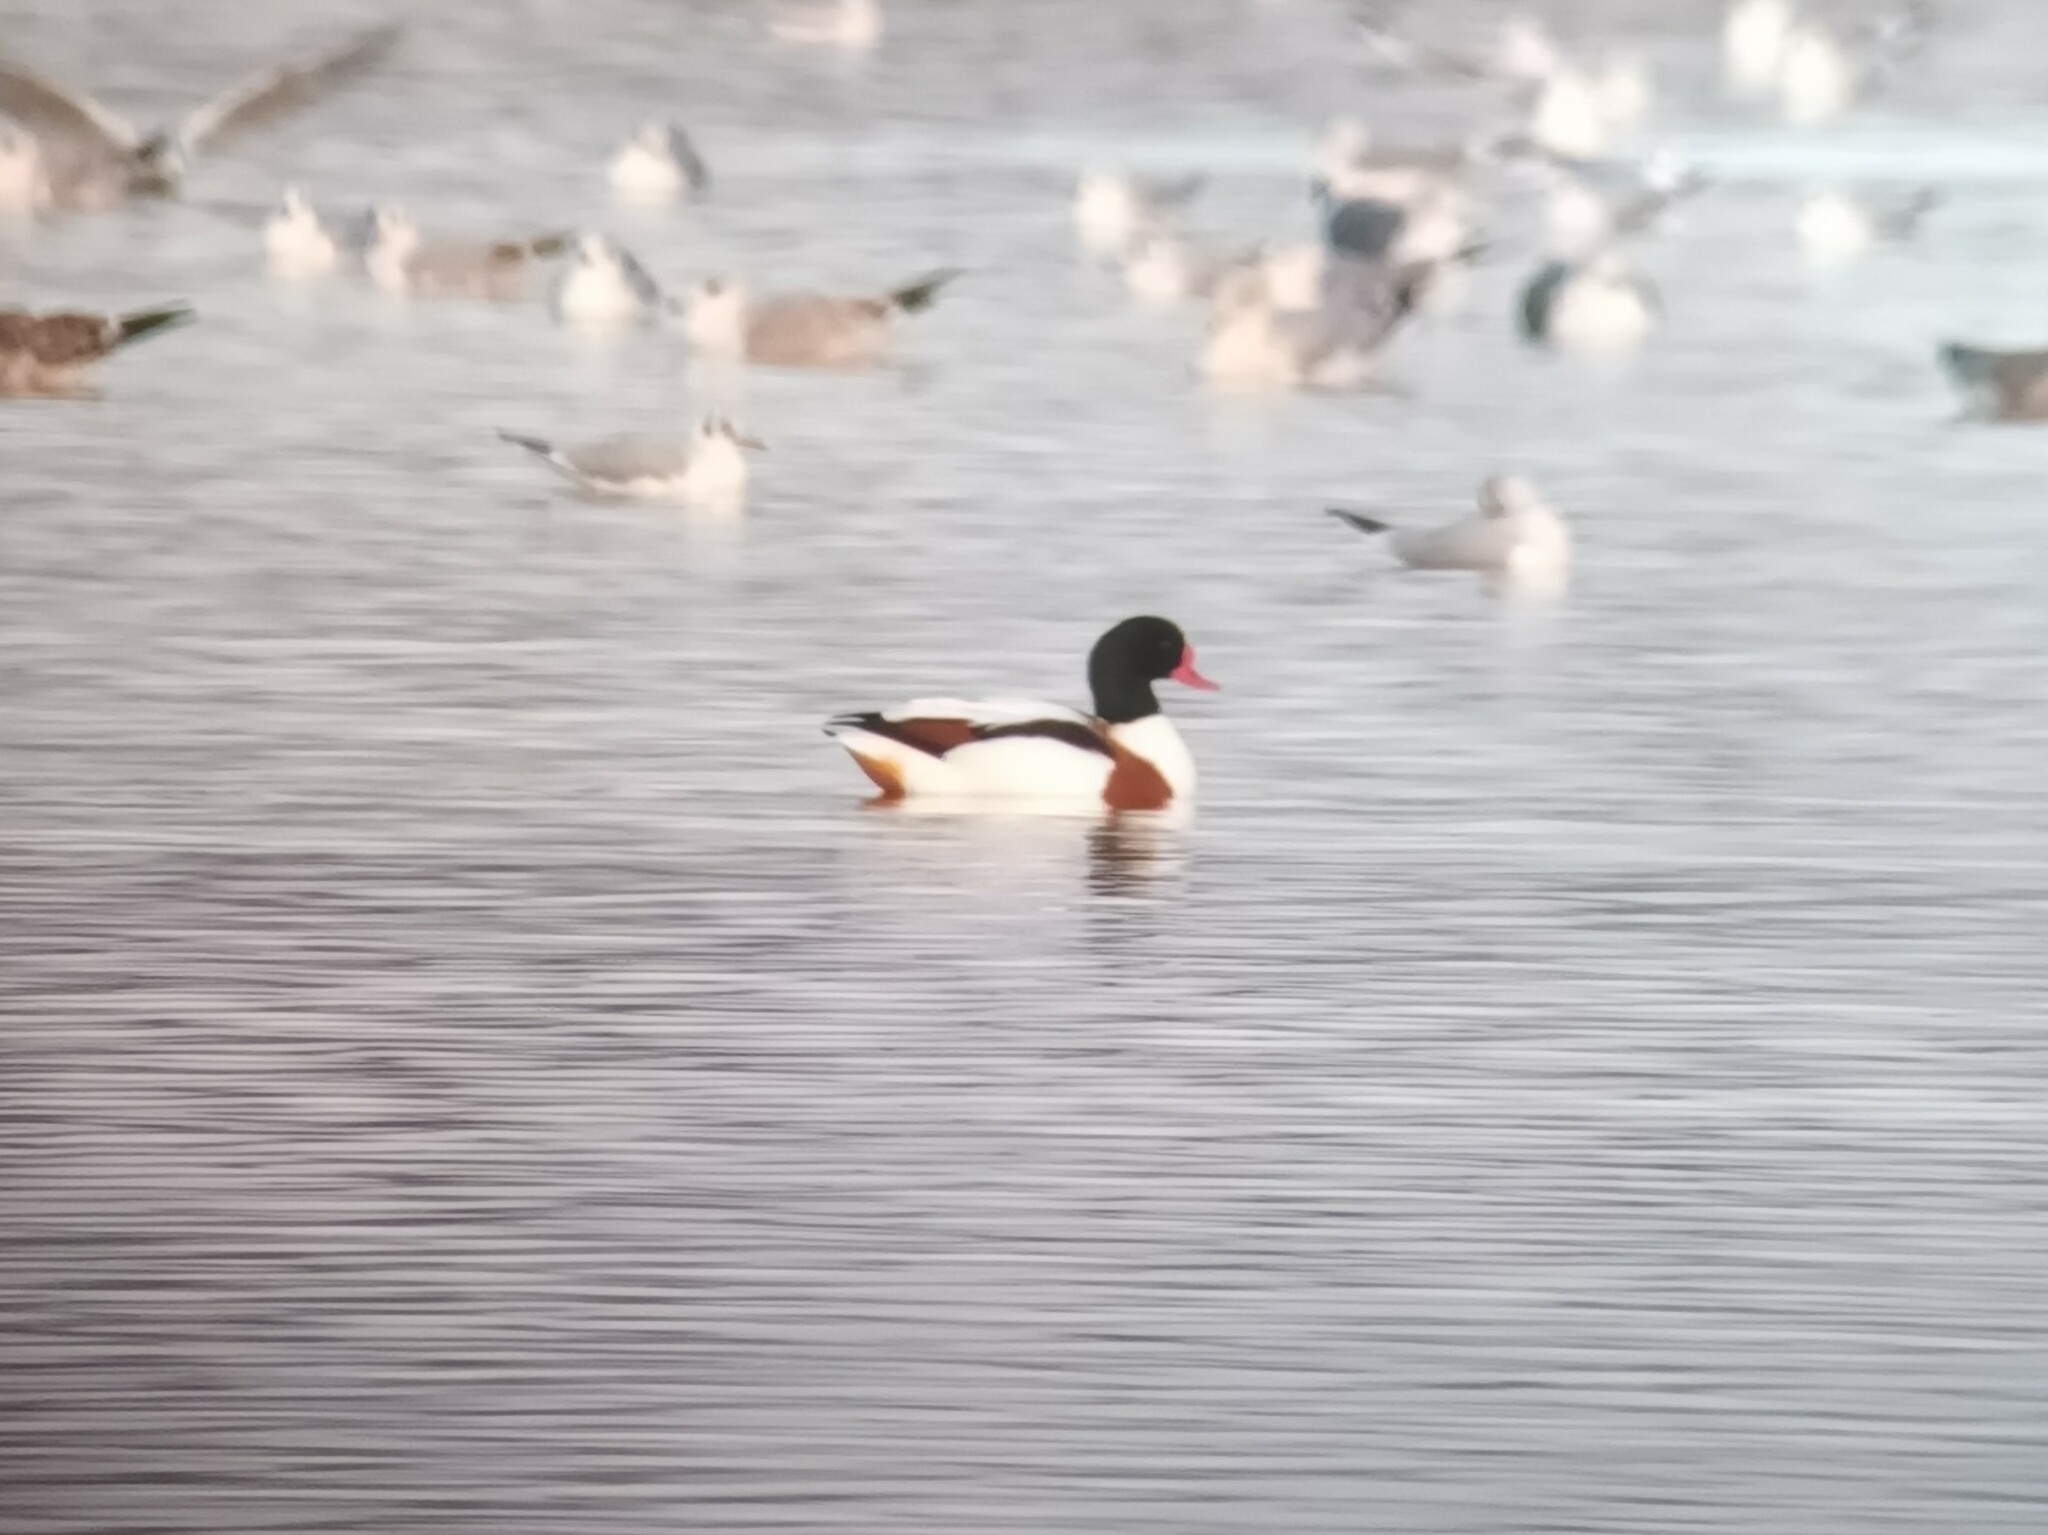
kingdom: Animalia
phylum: Chordata
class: Aves
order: Anseriformes
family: Anatidae
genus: Tadorna
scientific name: Tadorna tadorna
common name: Common shelduck
